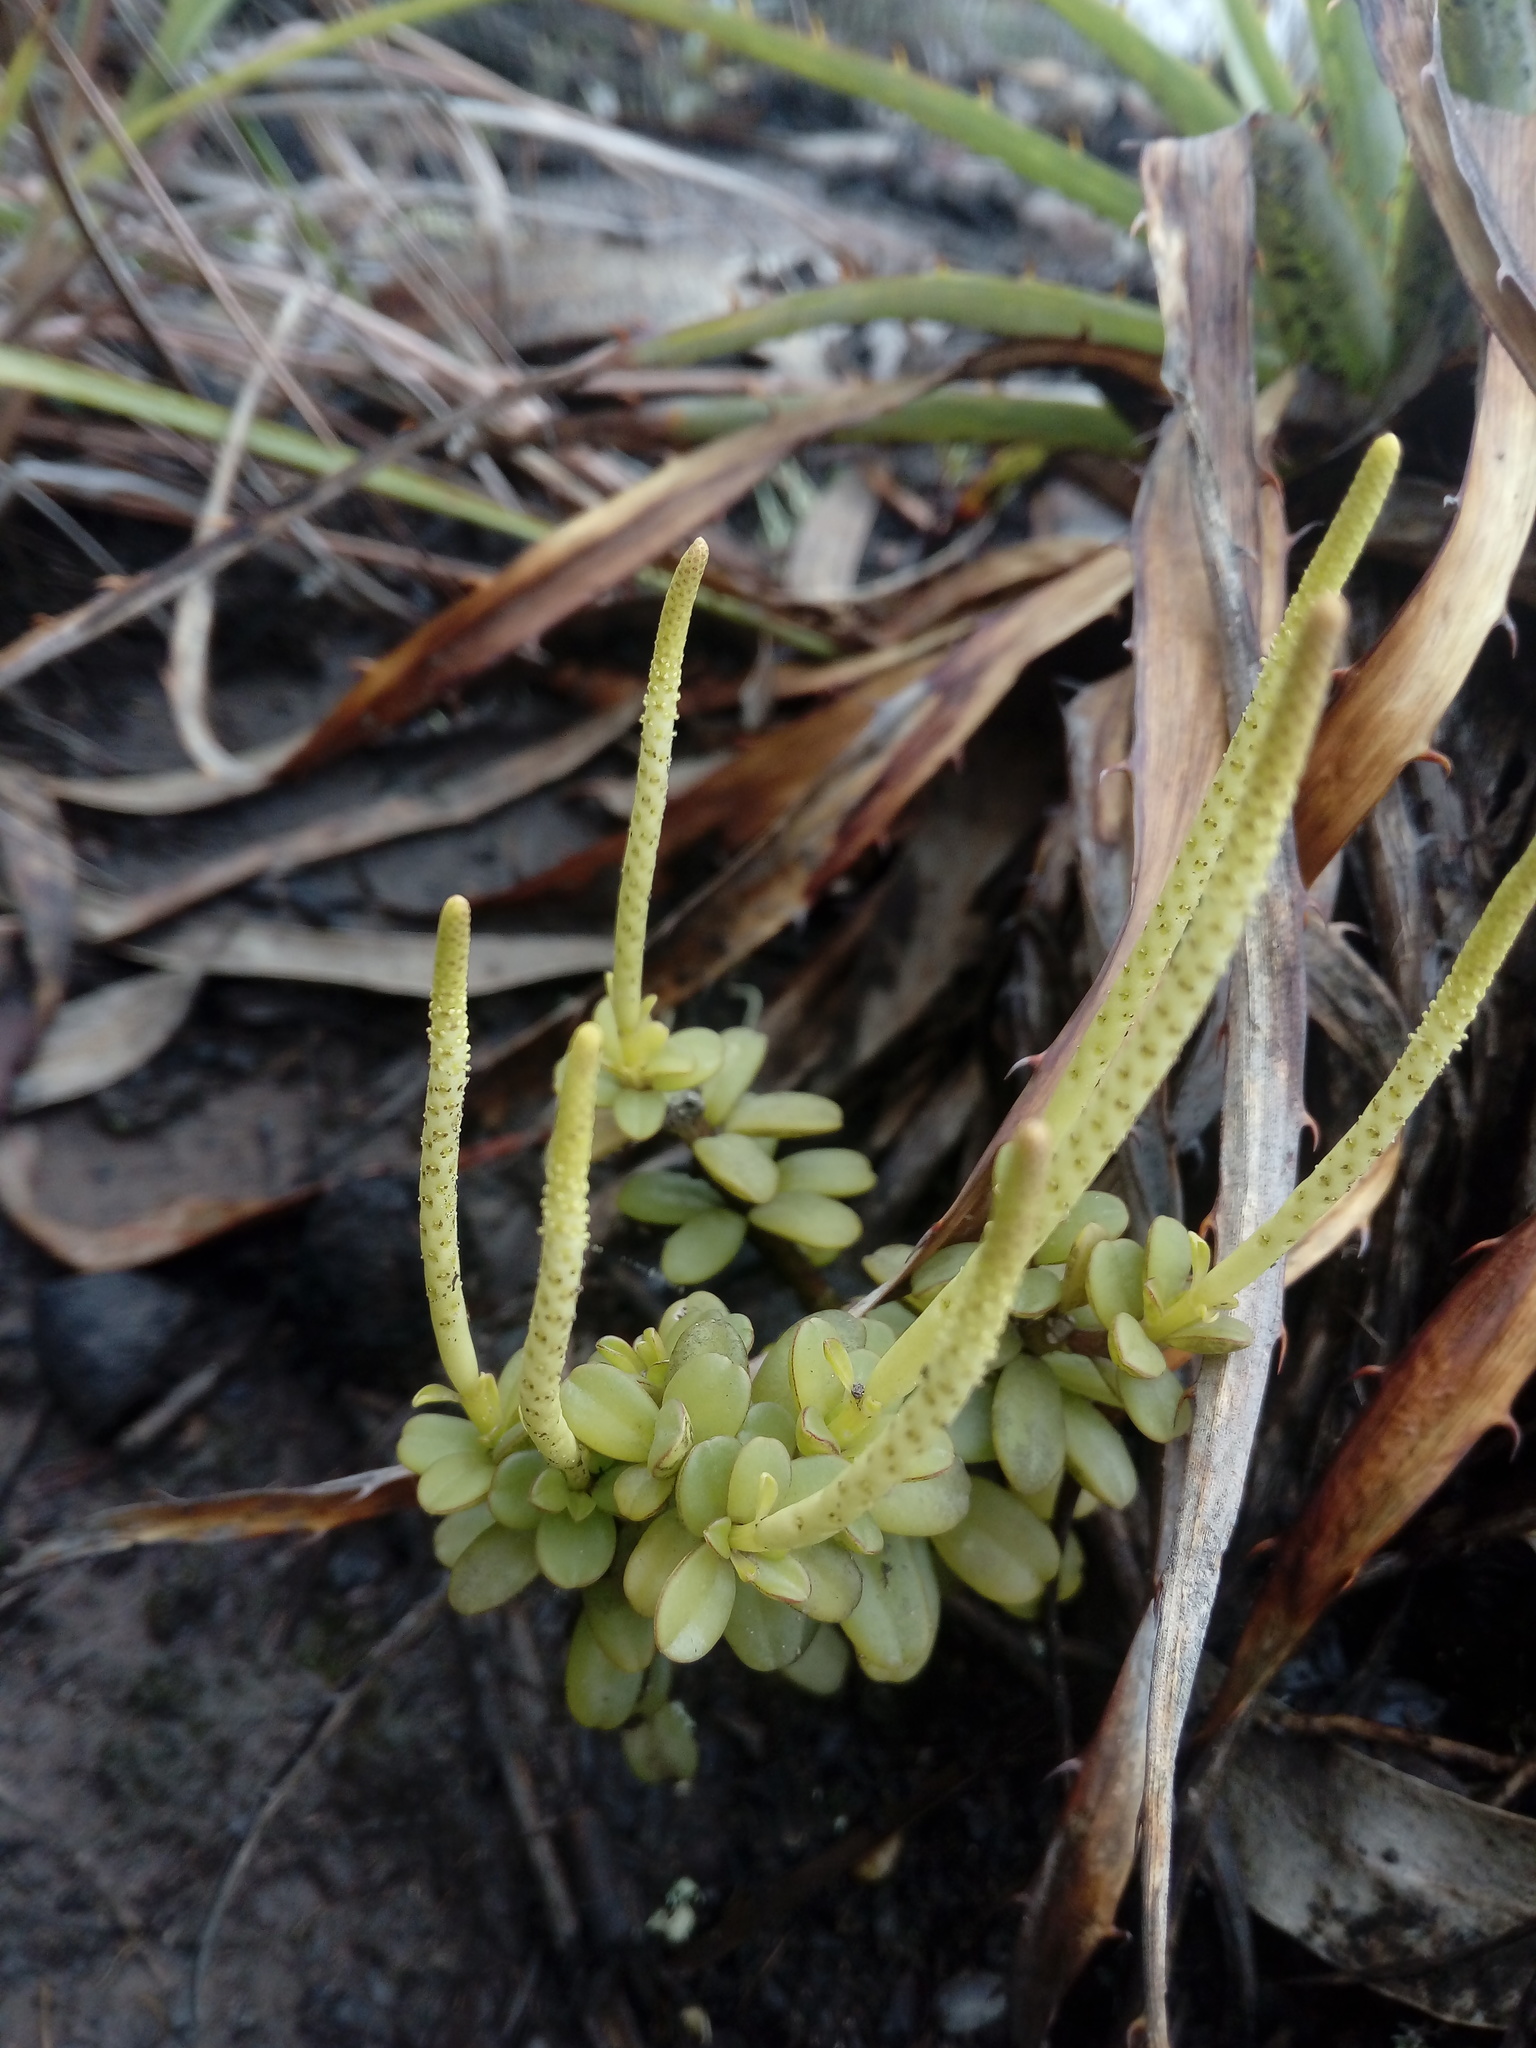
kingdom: Plantae
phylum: Tracheophyta
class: Magnoliopsida
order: Piperales
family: Piperaceae
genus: Peperomia
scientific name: Peperomia hartwegiana
